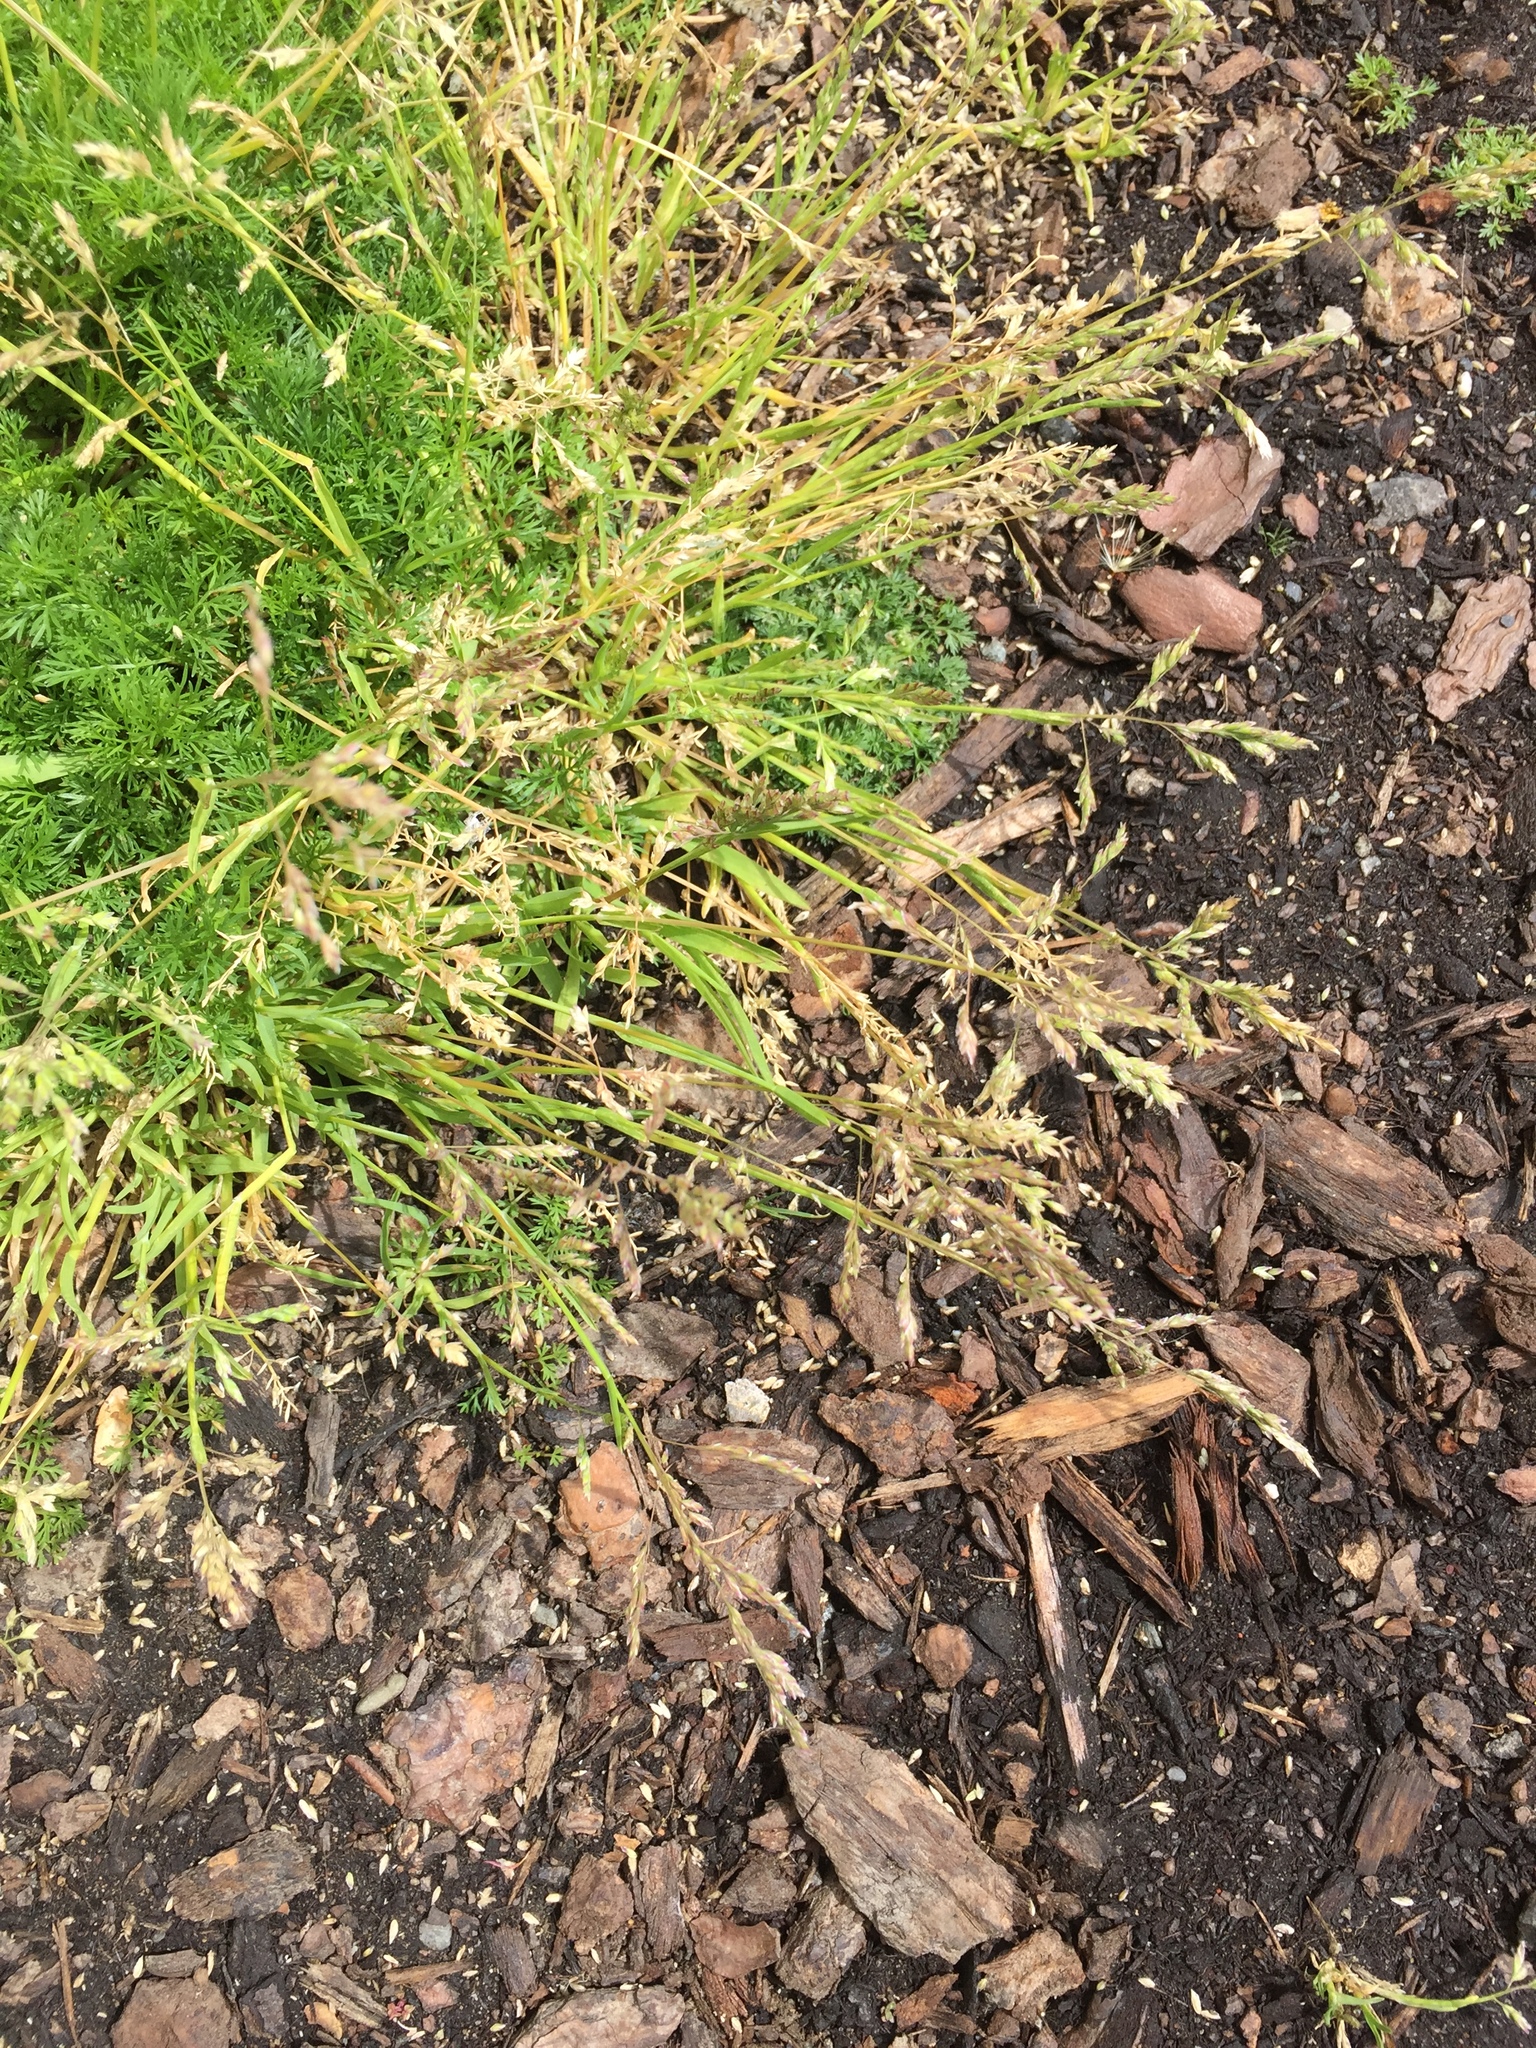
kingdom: Plantae
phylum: Tracheophyta
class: Liliopsida
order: Poales
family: Poaceae
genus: Poa
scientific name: Poa annua
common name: Annual bluegrass
